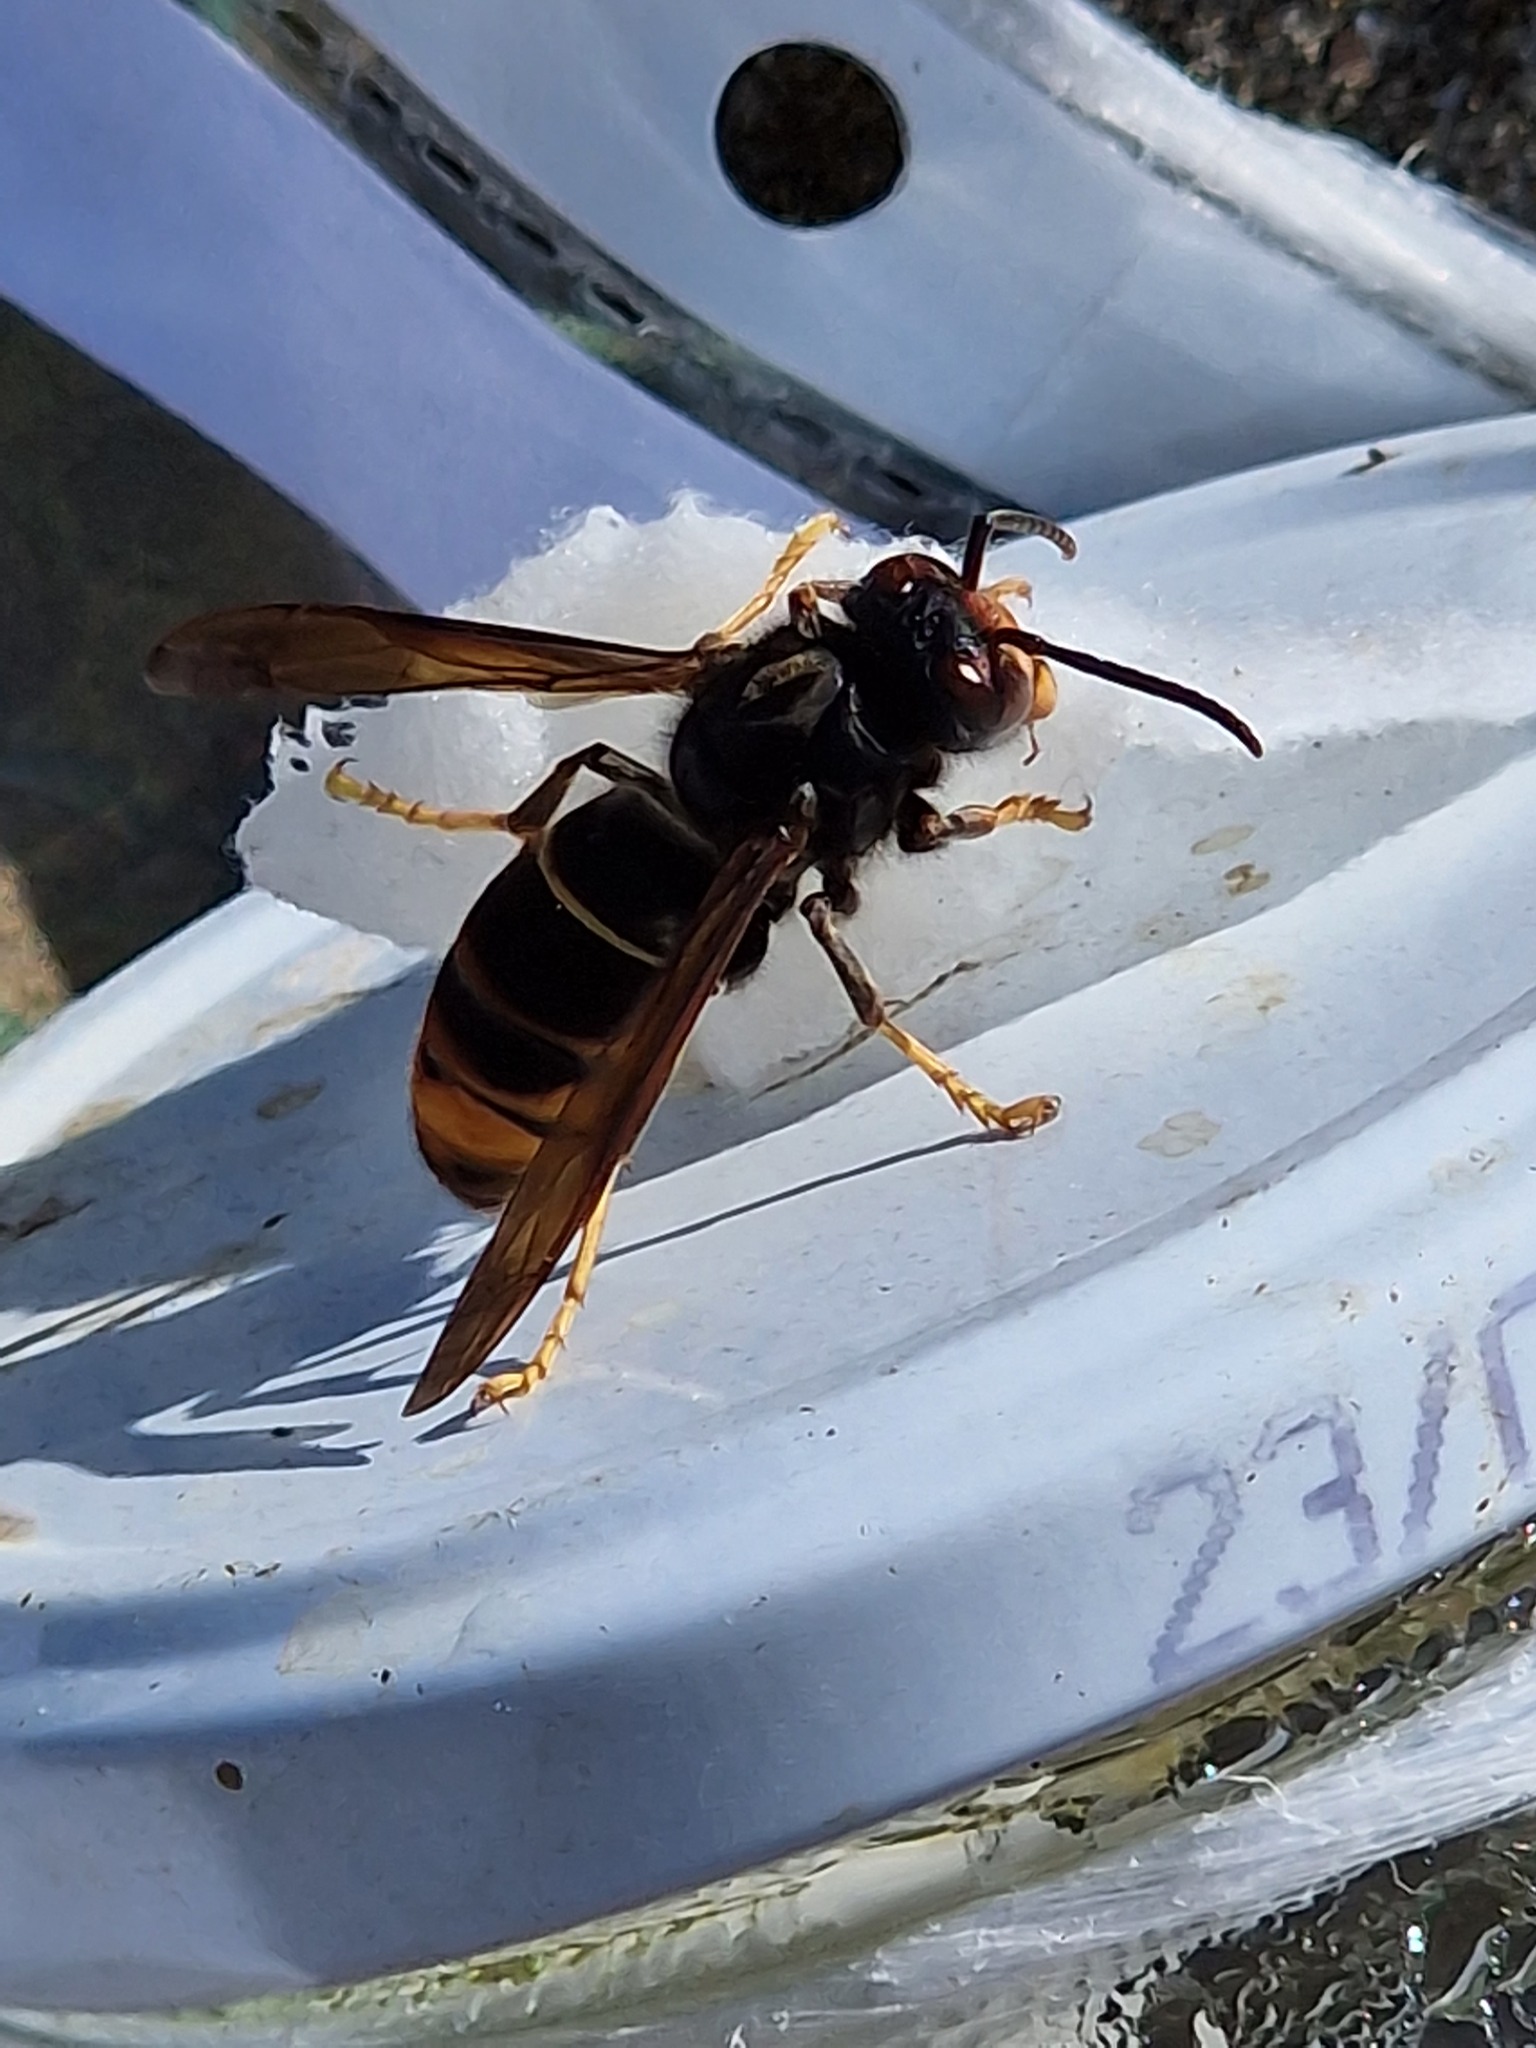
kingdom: Animalia
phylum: Arthropoda
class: Insecta
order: Hymenoptera
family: Vespidae
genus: Vespa
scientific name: Vespa velutina
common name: Asian hornet
